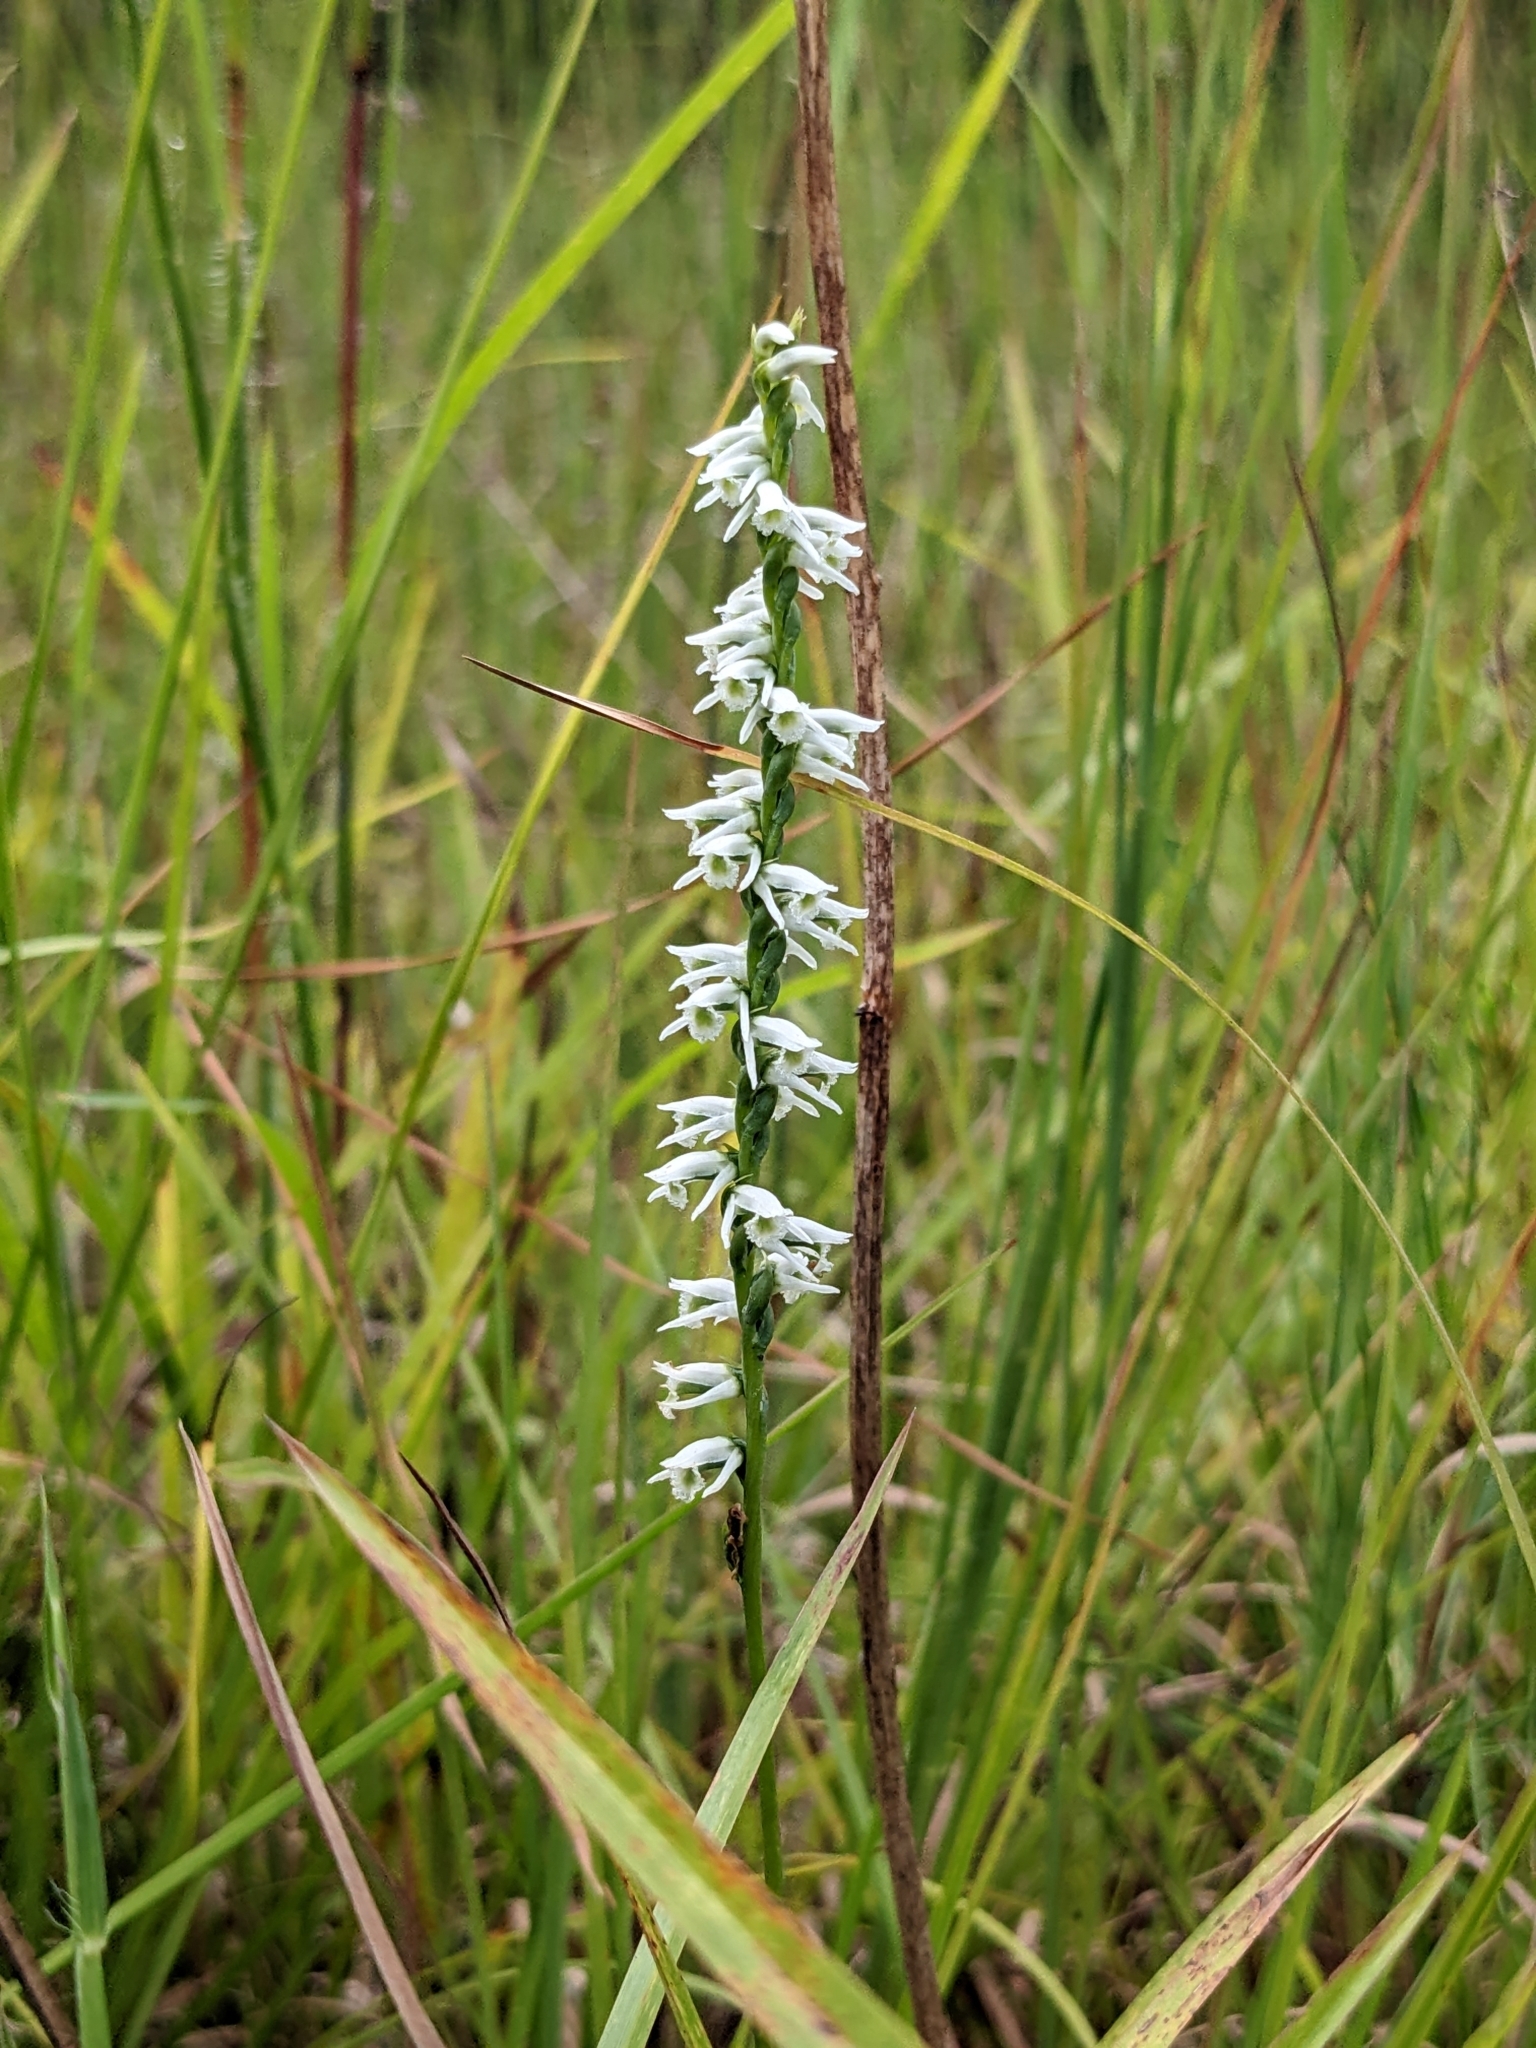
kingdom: Plantae
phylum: Tracheophyta
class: Liliopsida
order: Asparagales
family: Orchidaceae
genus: Spiranthes
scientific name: Spiranthes lacera
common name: Northern slender ladies'-tresses
